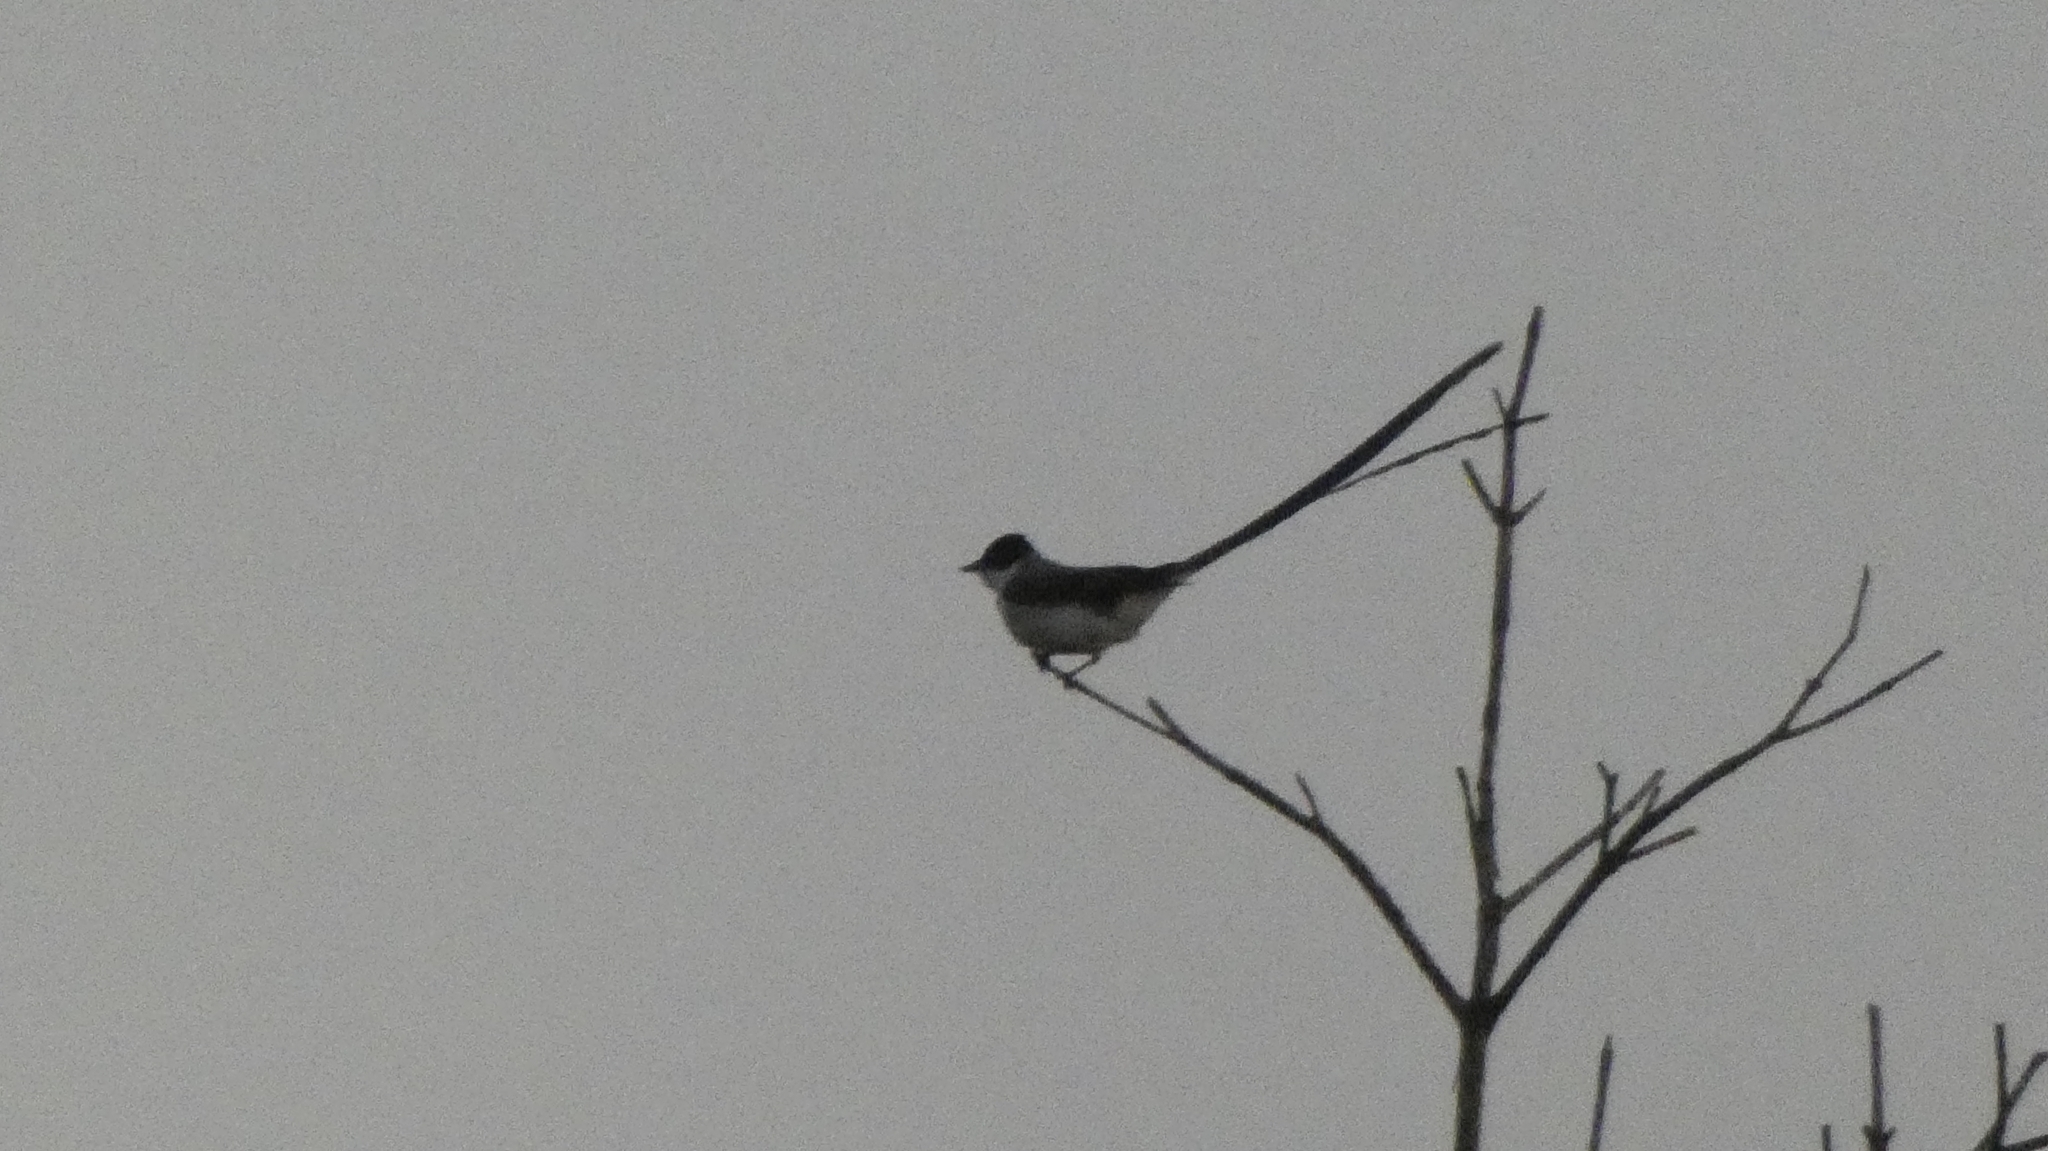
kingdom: Animalia
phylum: Chordata
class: Aves
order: Passeriformes
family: Tyrannidae
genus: Tyrannus
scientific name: Tyrannus savana
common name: Fork-tailed flycatcher
